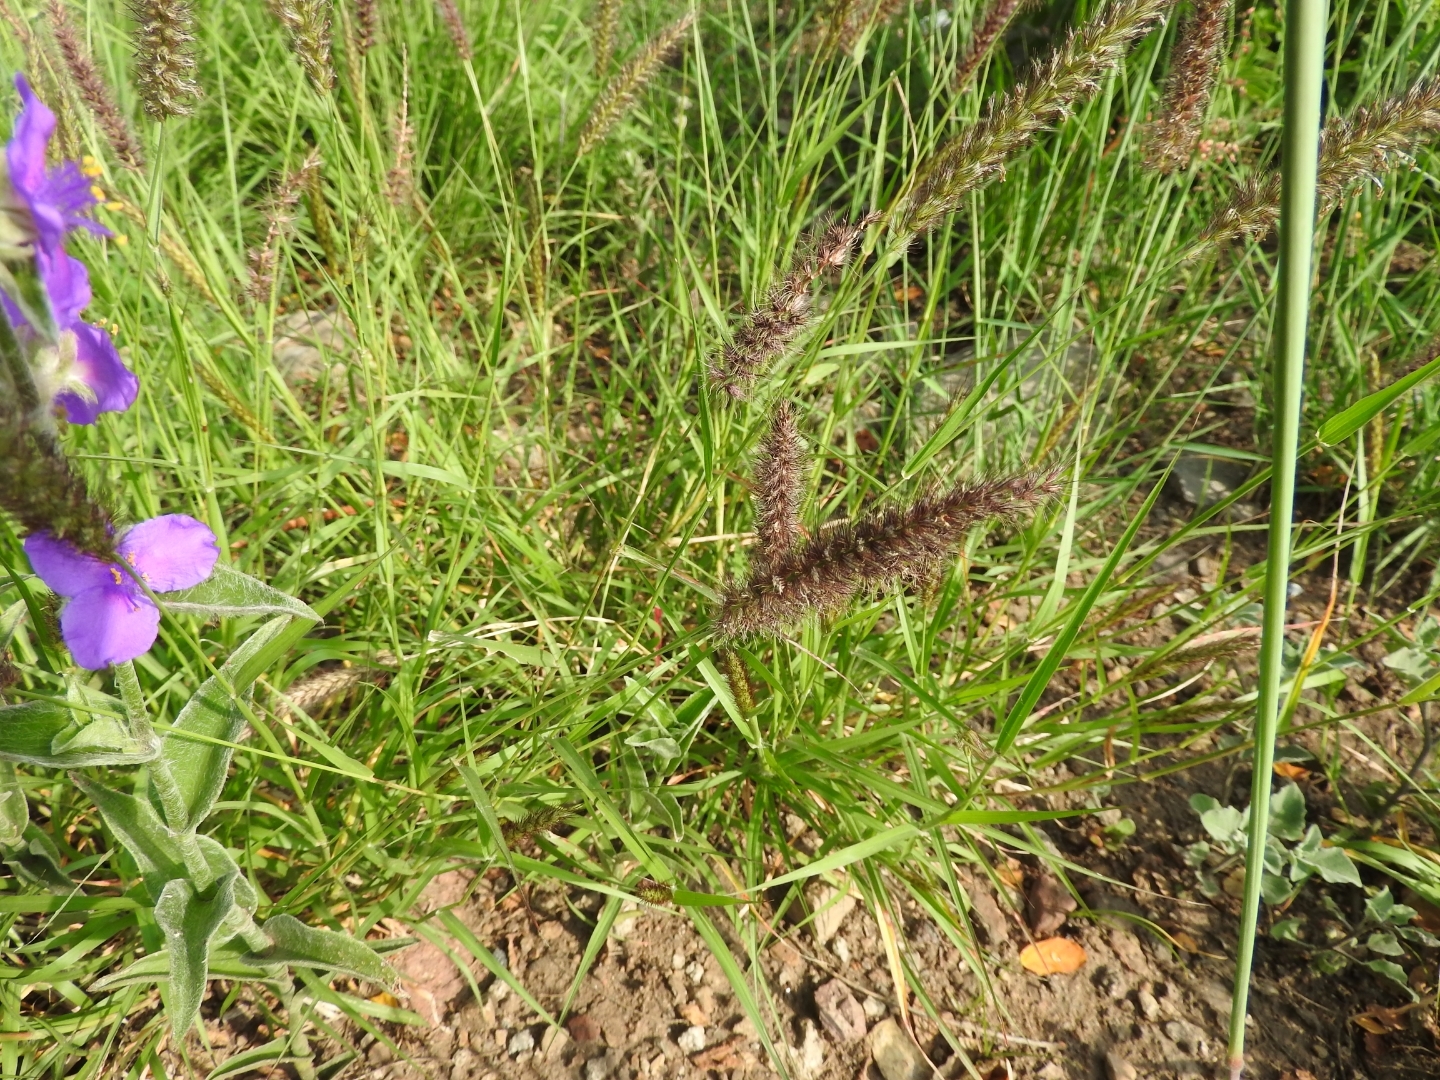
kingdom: Plantae
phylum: Tracheophyta
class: Liliopsida
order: Poales
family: Poaceae
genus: Cenchrus
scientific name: Cenchrus ciliaris
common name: Buffelgrass
